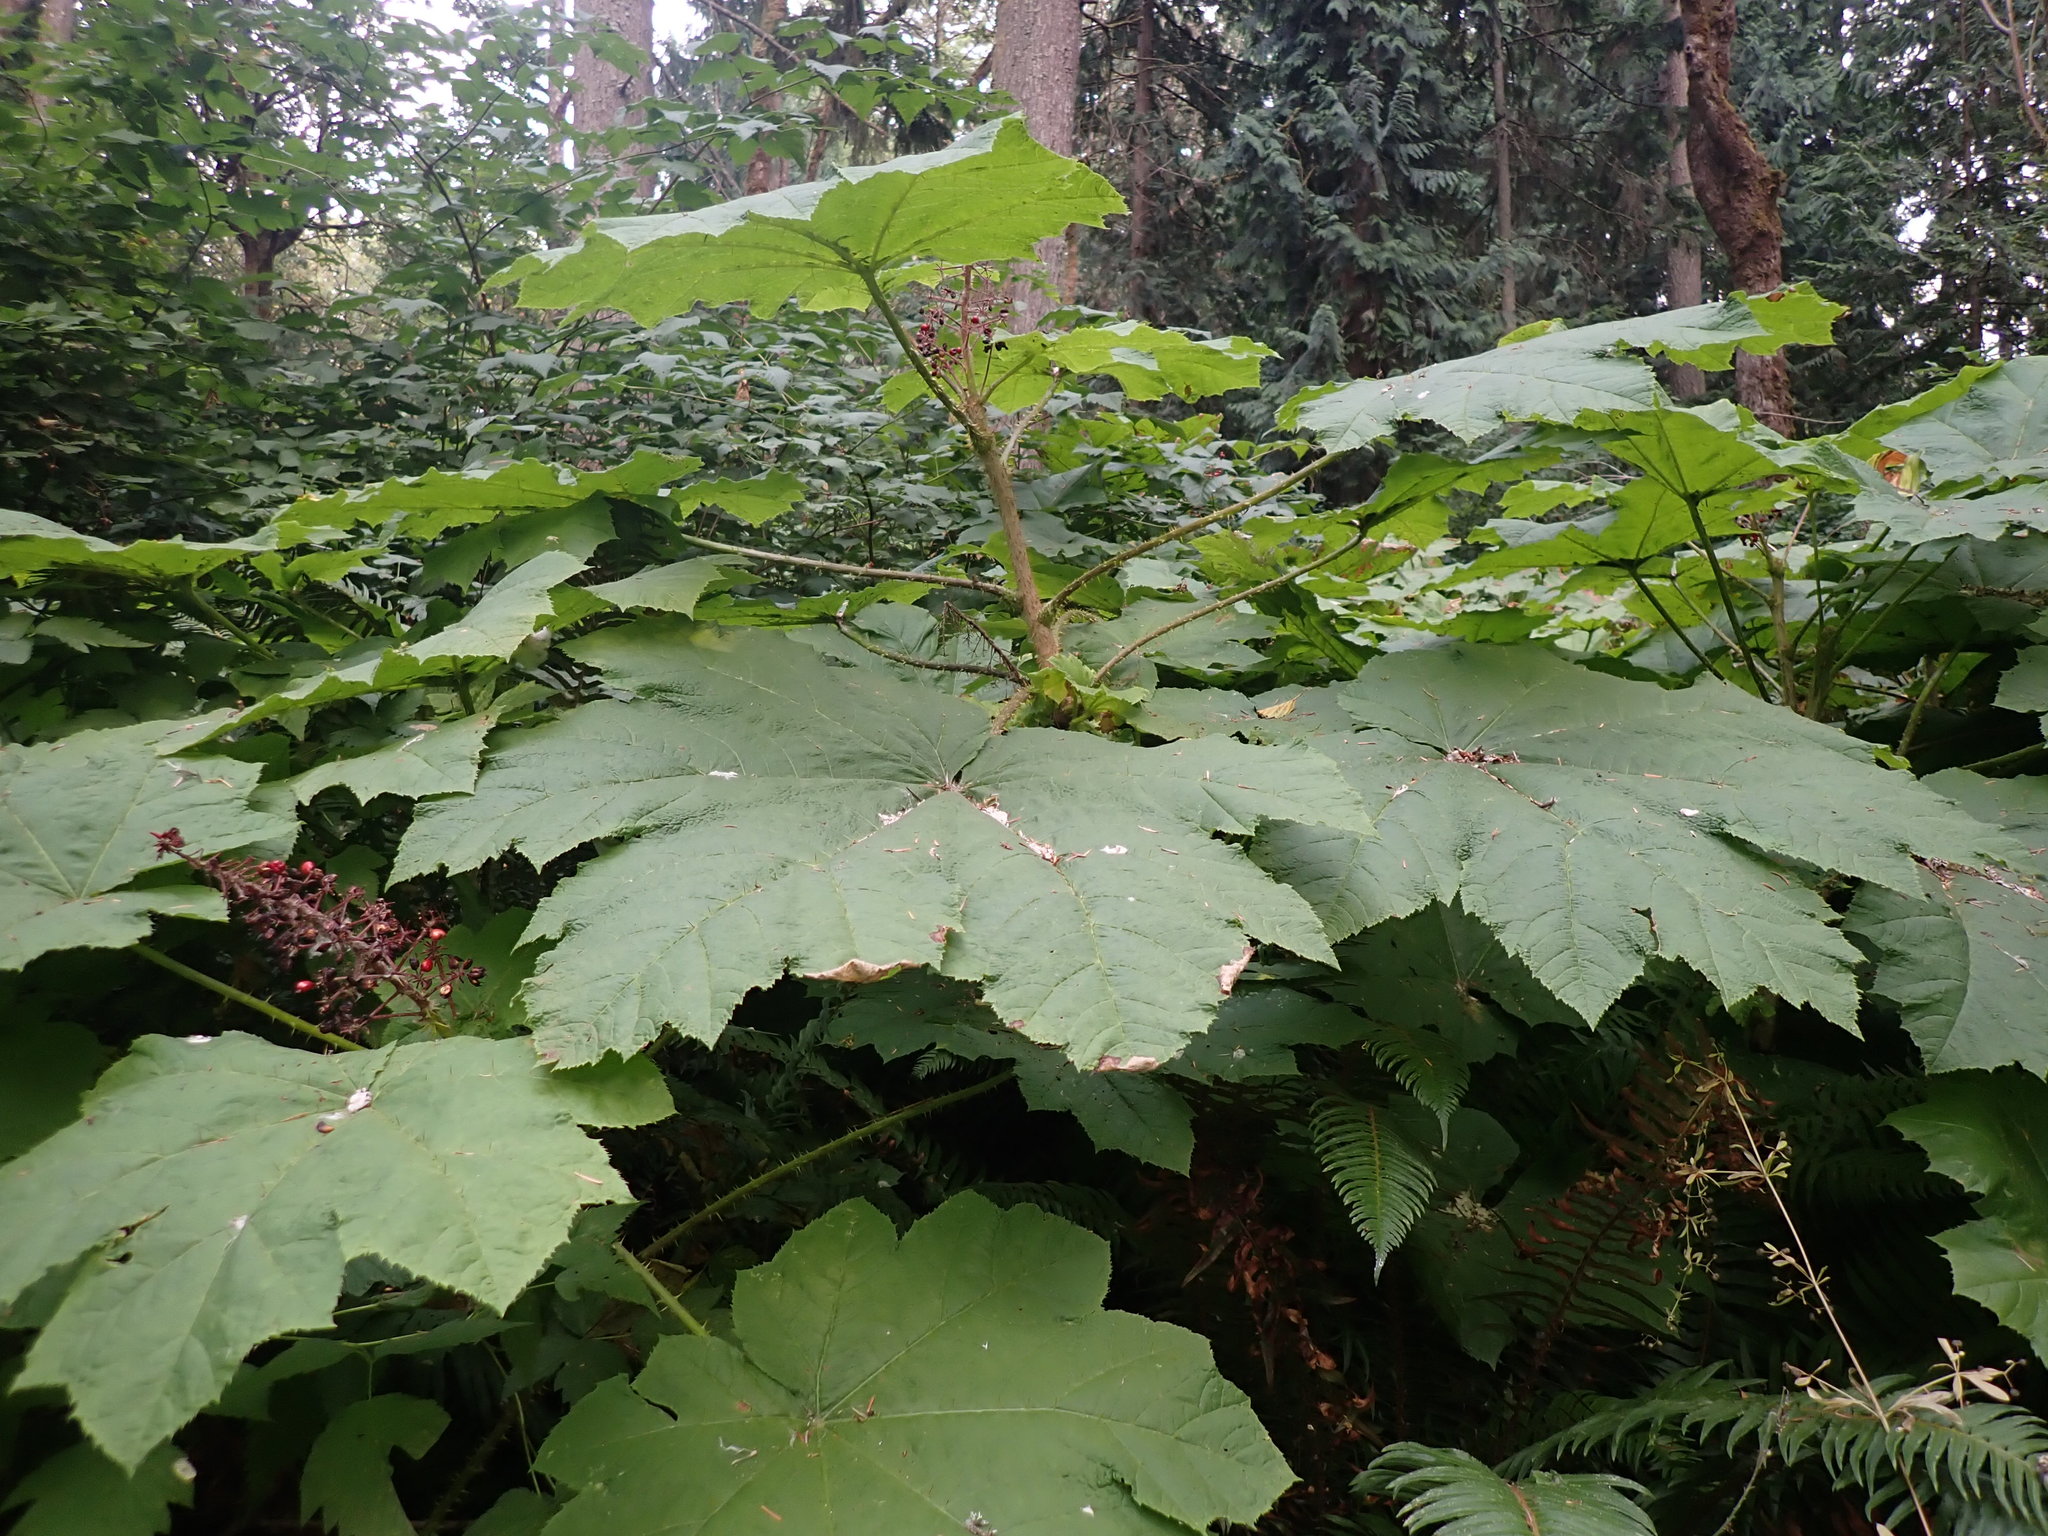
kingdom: Plantae
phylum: Tracheophyta
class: Magnoliopsida
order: Apiales
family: Araliaceae
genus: Oplopanax
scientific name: Oplopanax horridus
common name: Devil's walking-stick
